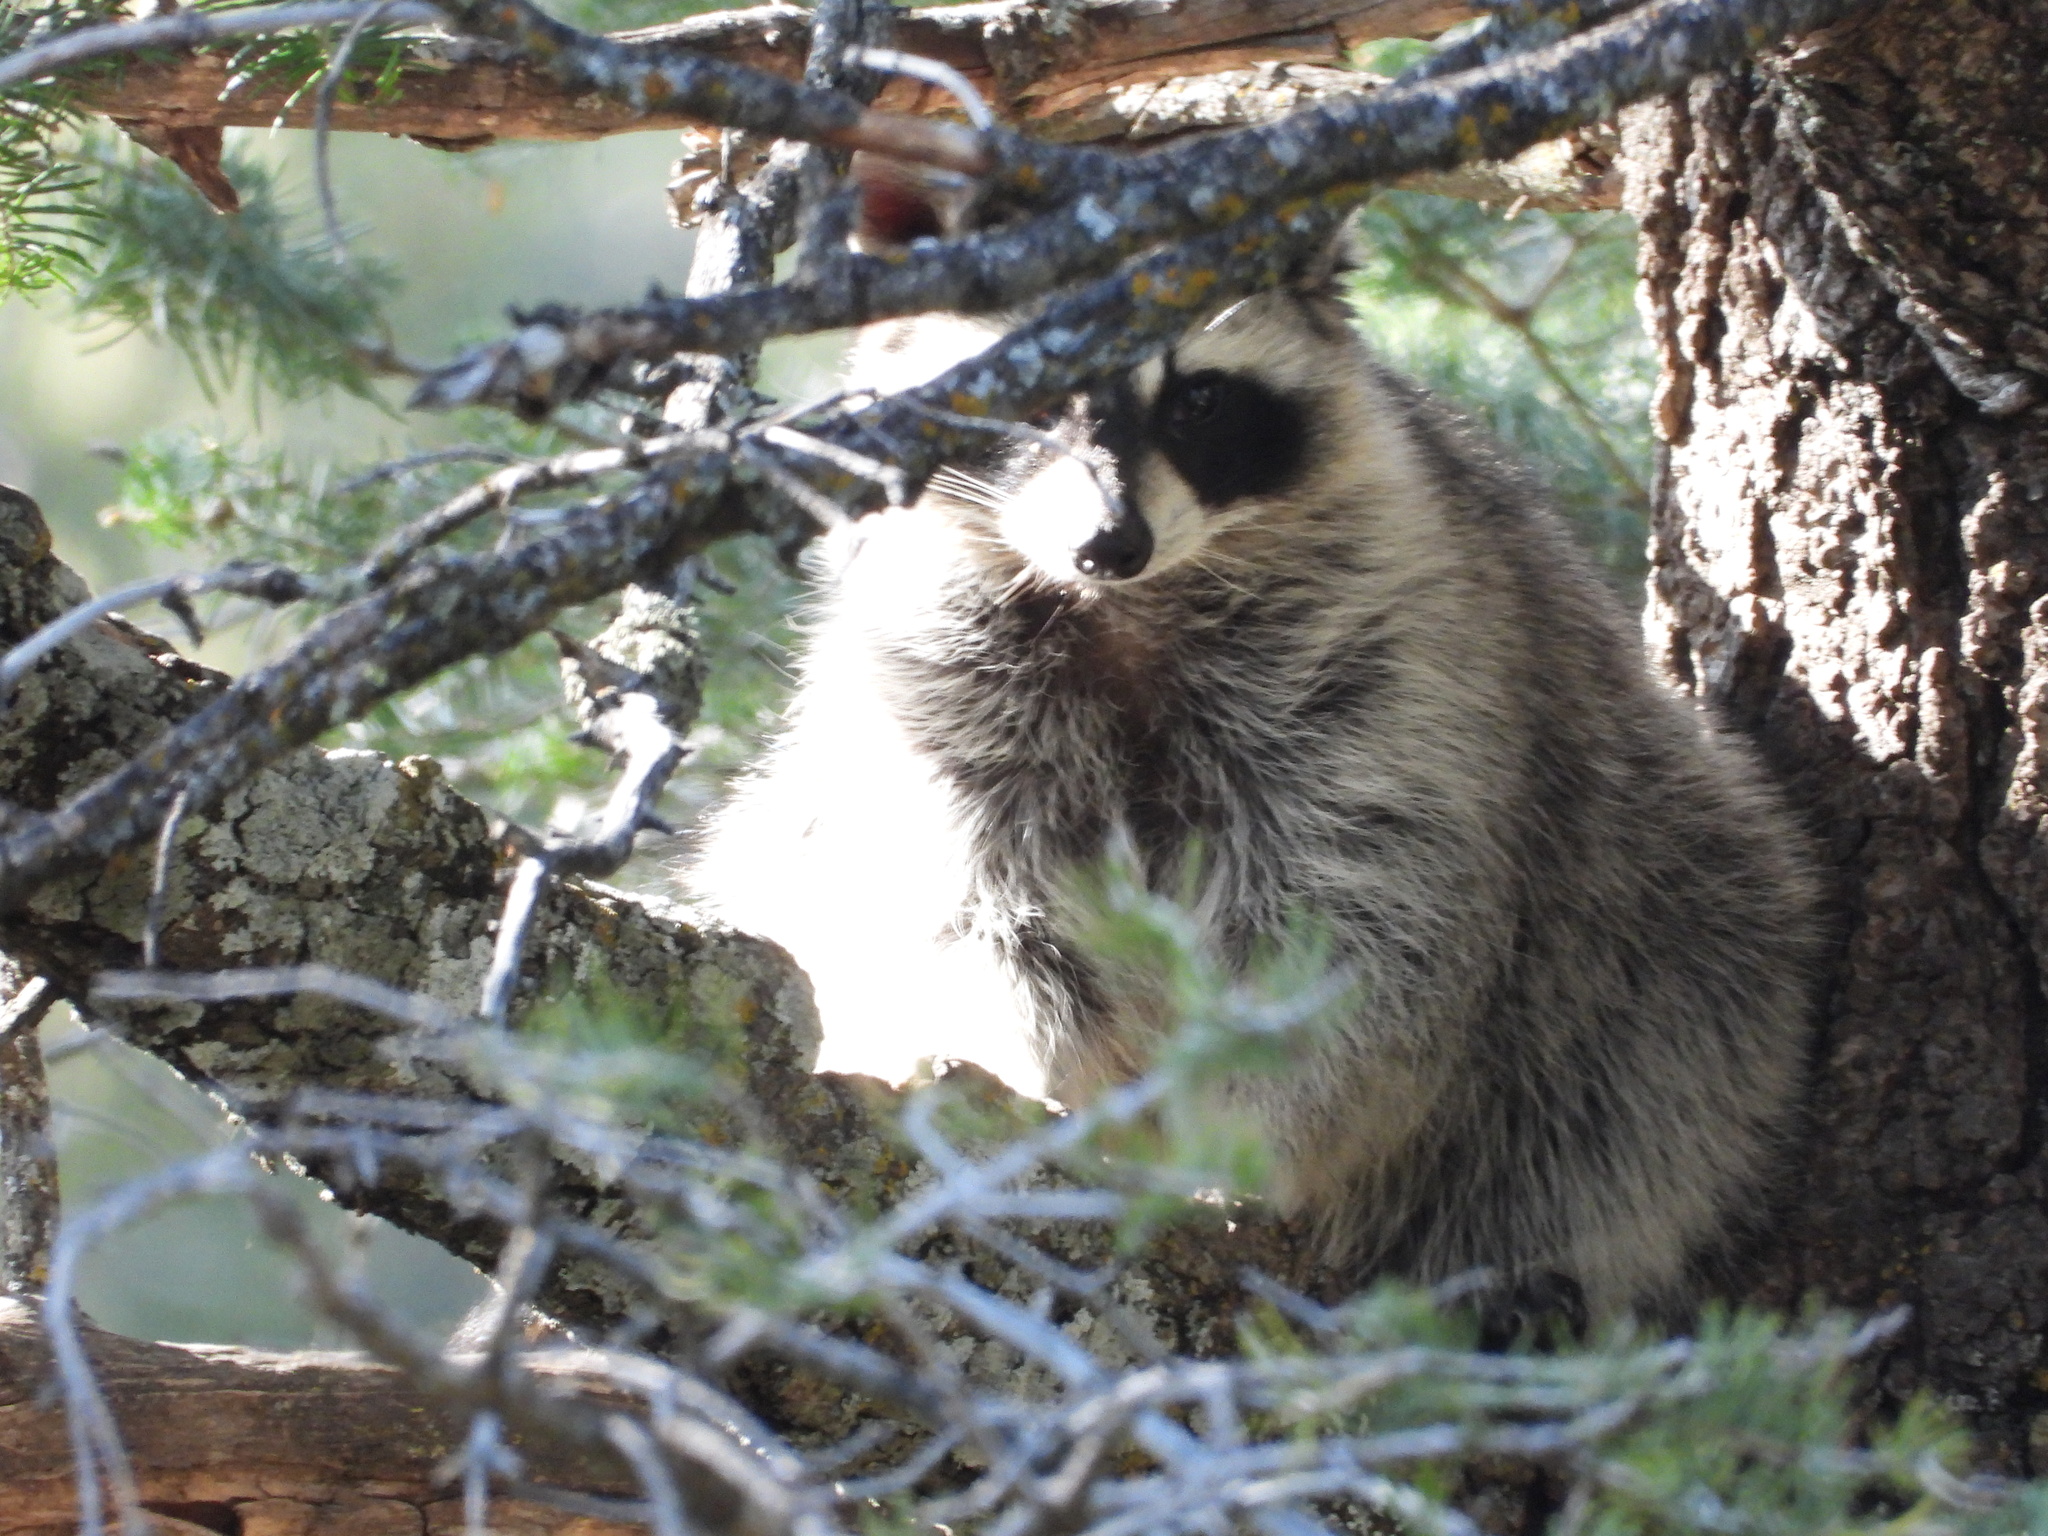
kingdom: Animalia
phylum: Chordata
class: Mammalia
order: Carnivora
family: Procyonidae
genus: Procyon
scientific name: Procyon lotor
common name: Raccoon
